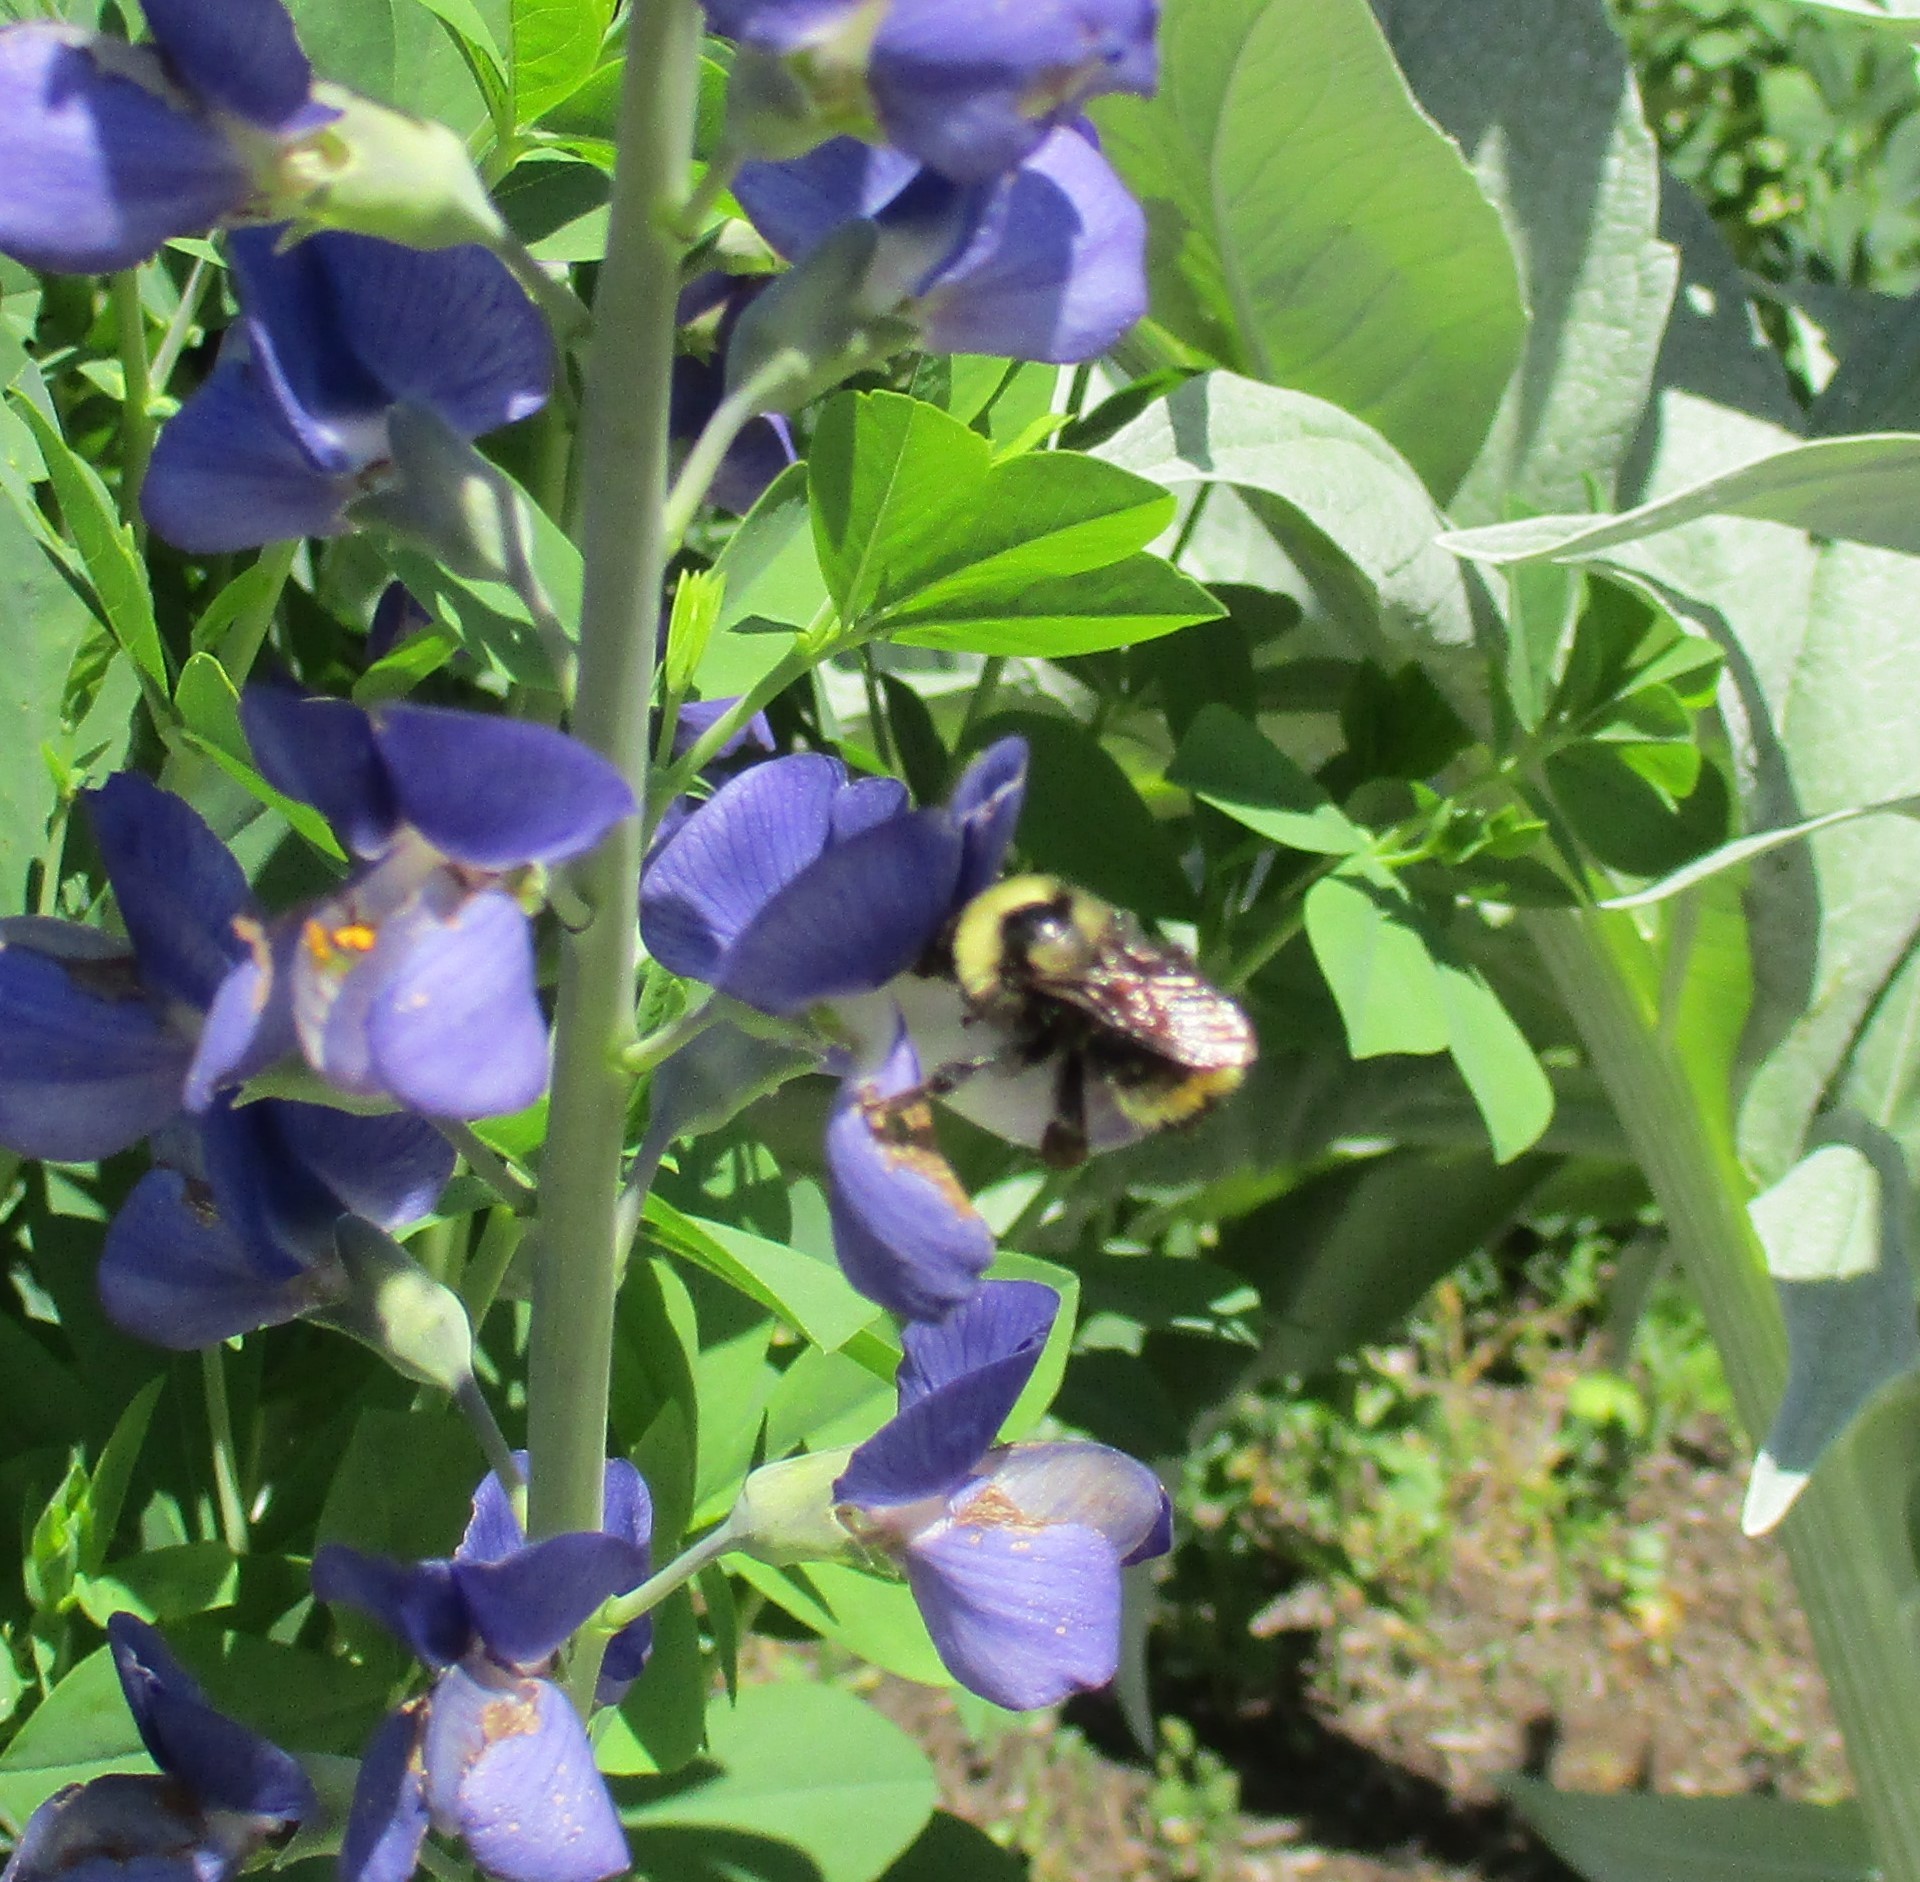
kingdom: Animalia
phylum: Arthropoda
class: Insecta
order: Hymenoptera
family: Apidae
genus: Bombus
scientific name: Bombus californicus
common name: California bumble bee
